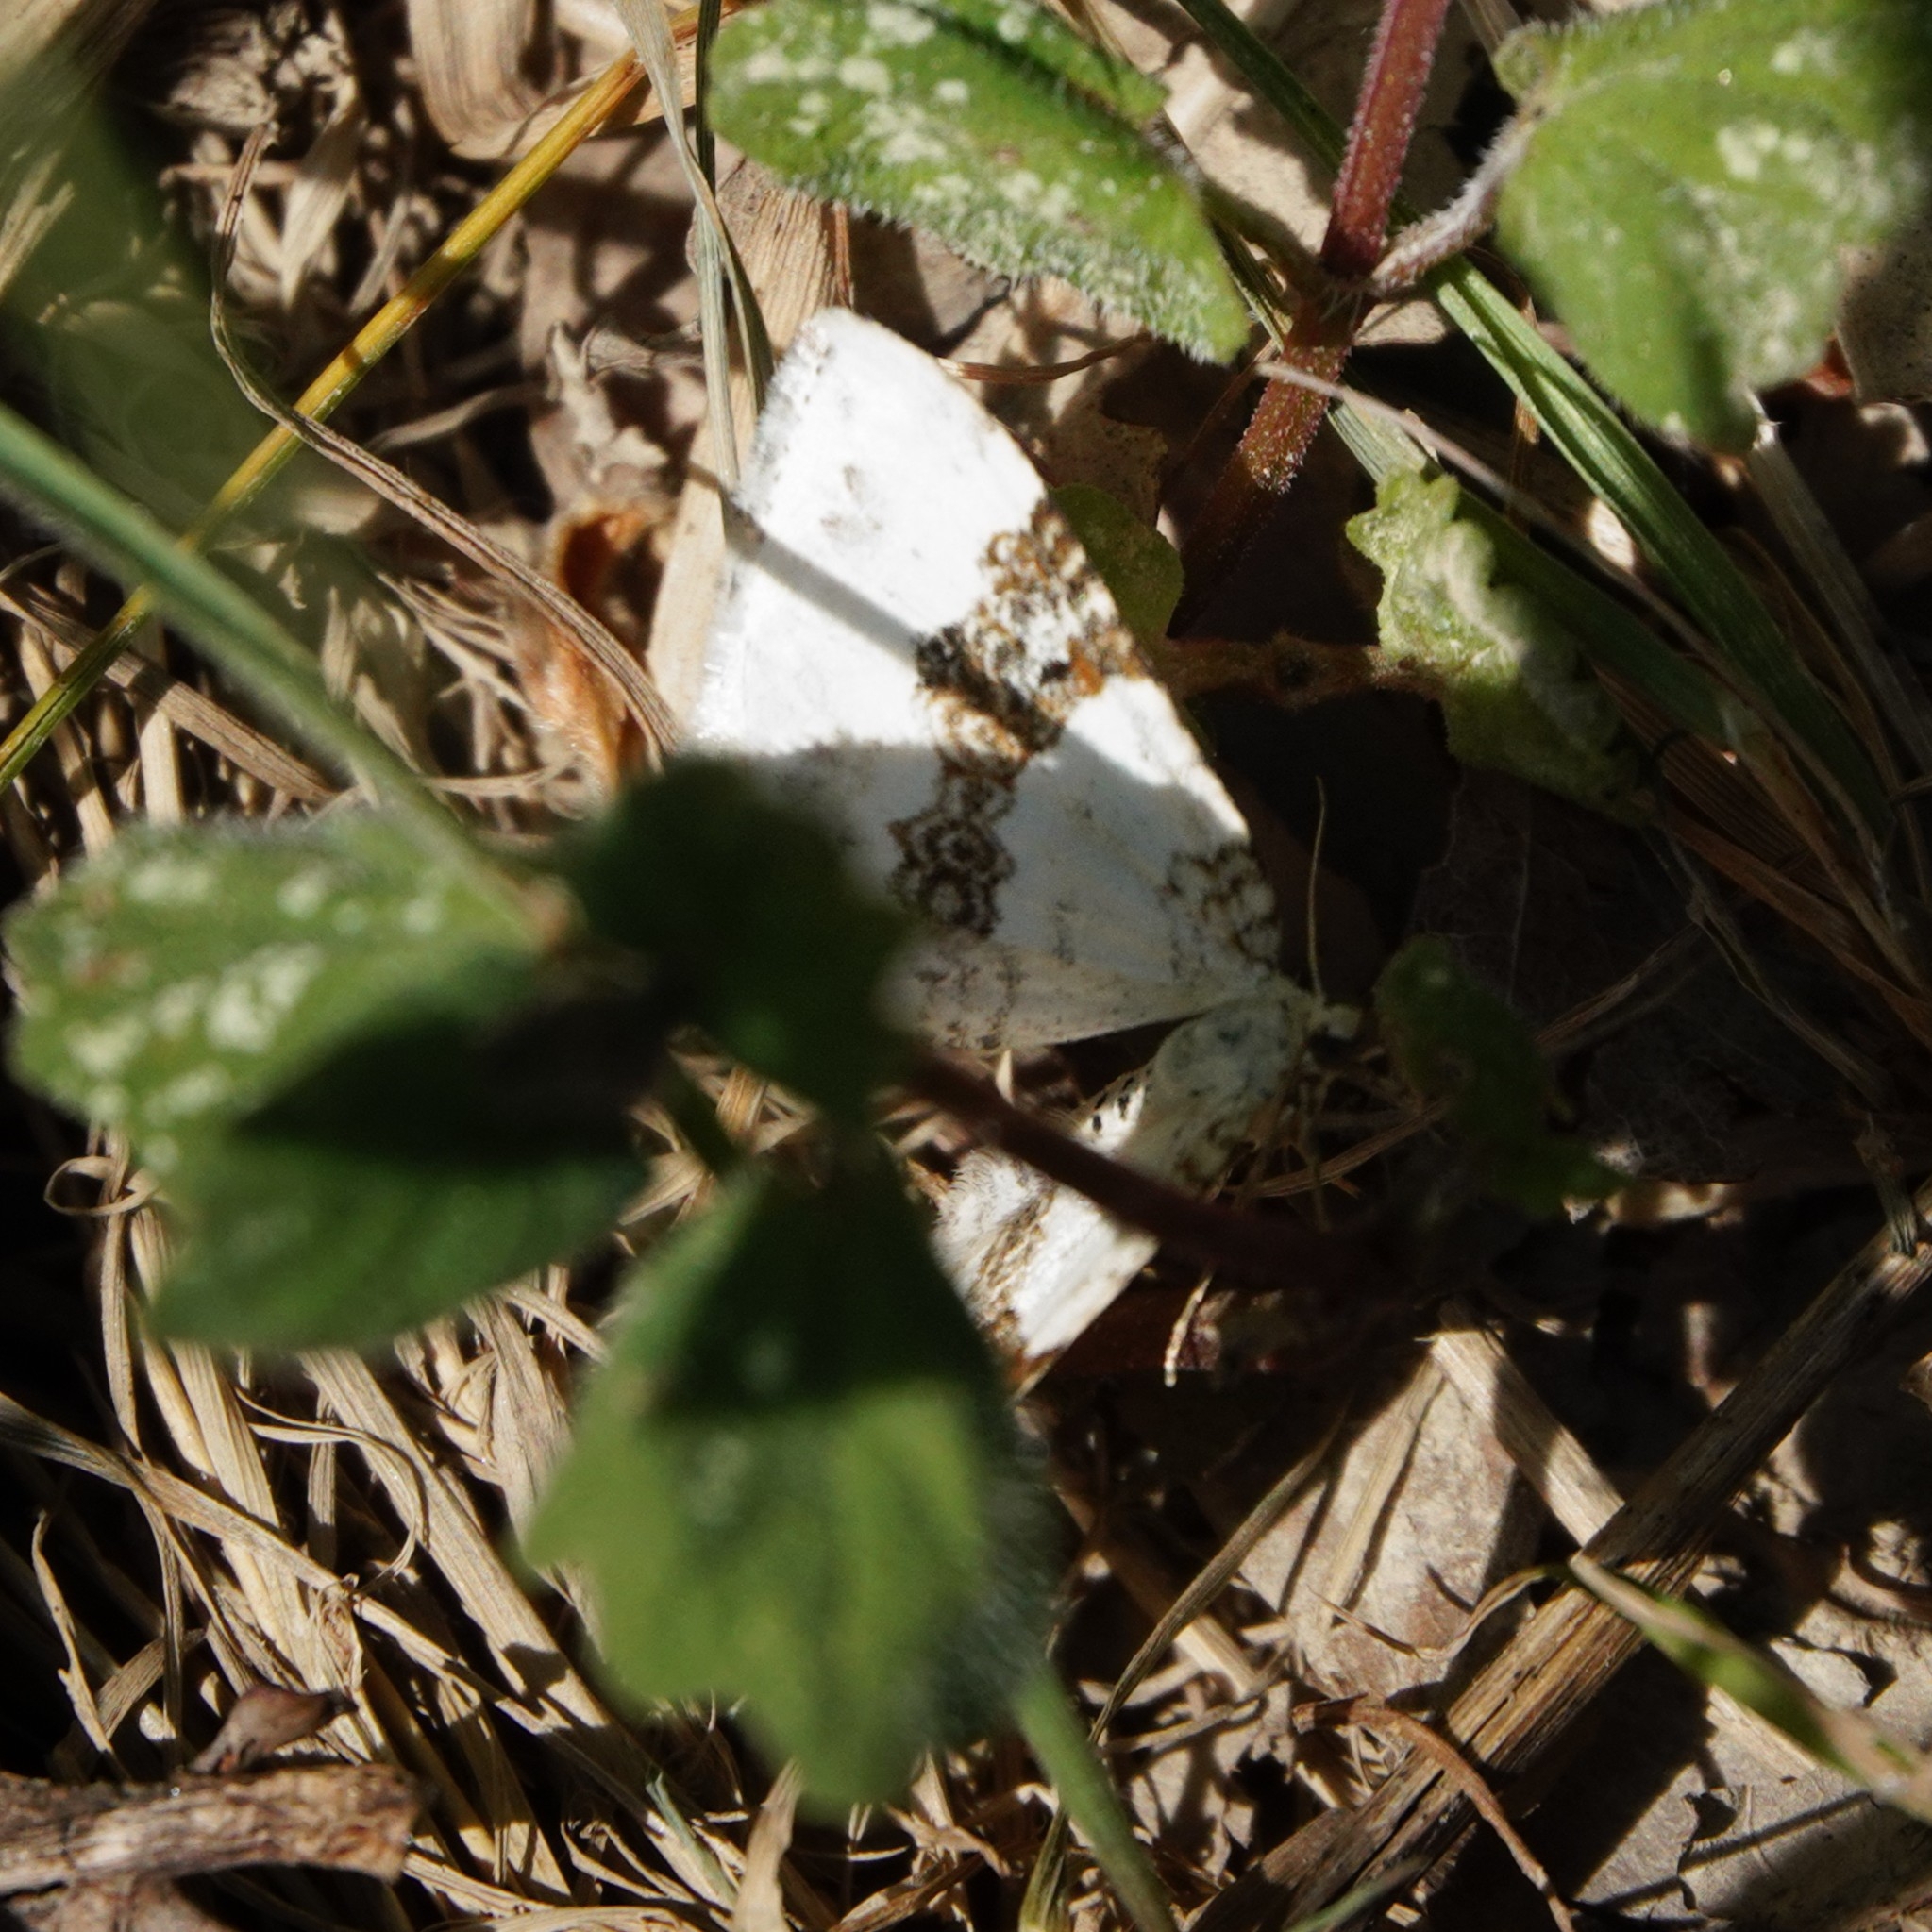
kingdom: Animalia
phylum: Arthropoda
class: Insecta
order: Lepidoptera
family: Geometridae
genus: Xanthorhoe
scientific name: Xanthorhoe montanata
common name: Silver-ground carpet
